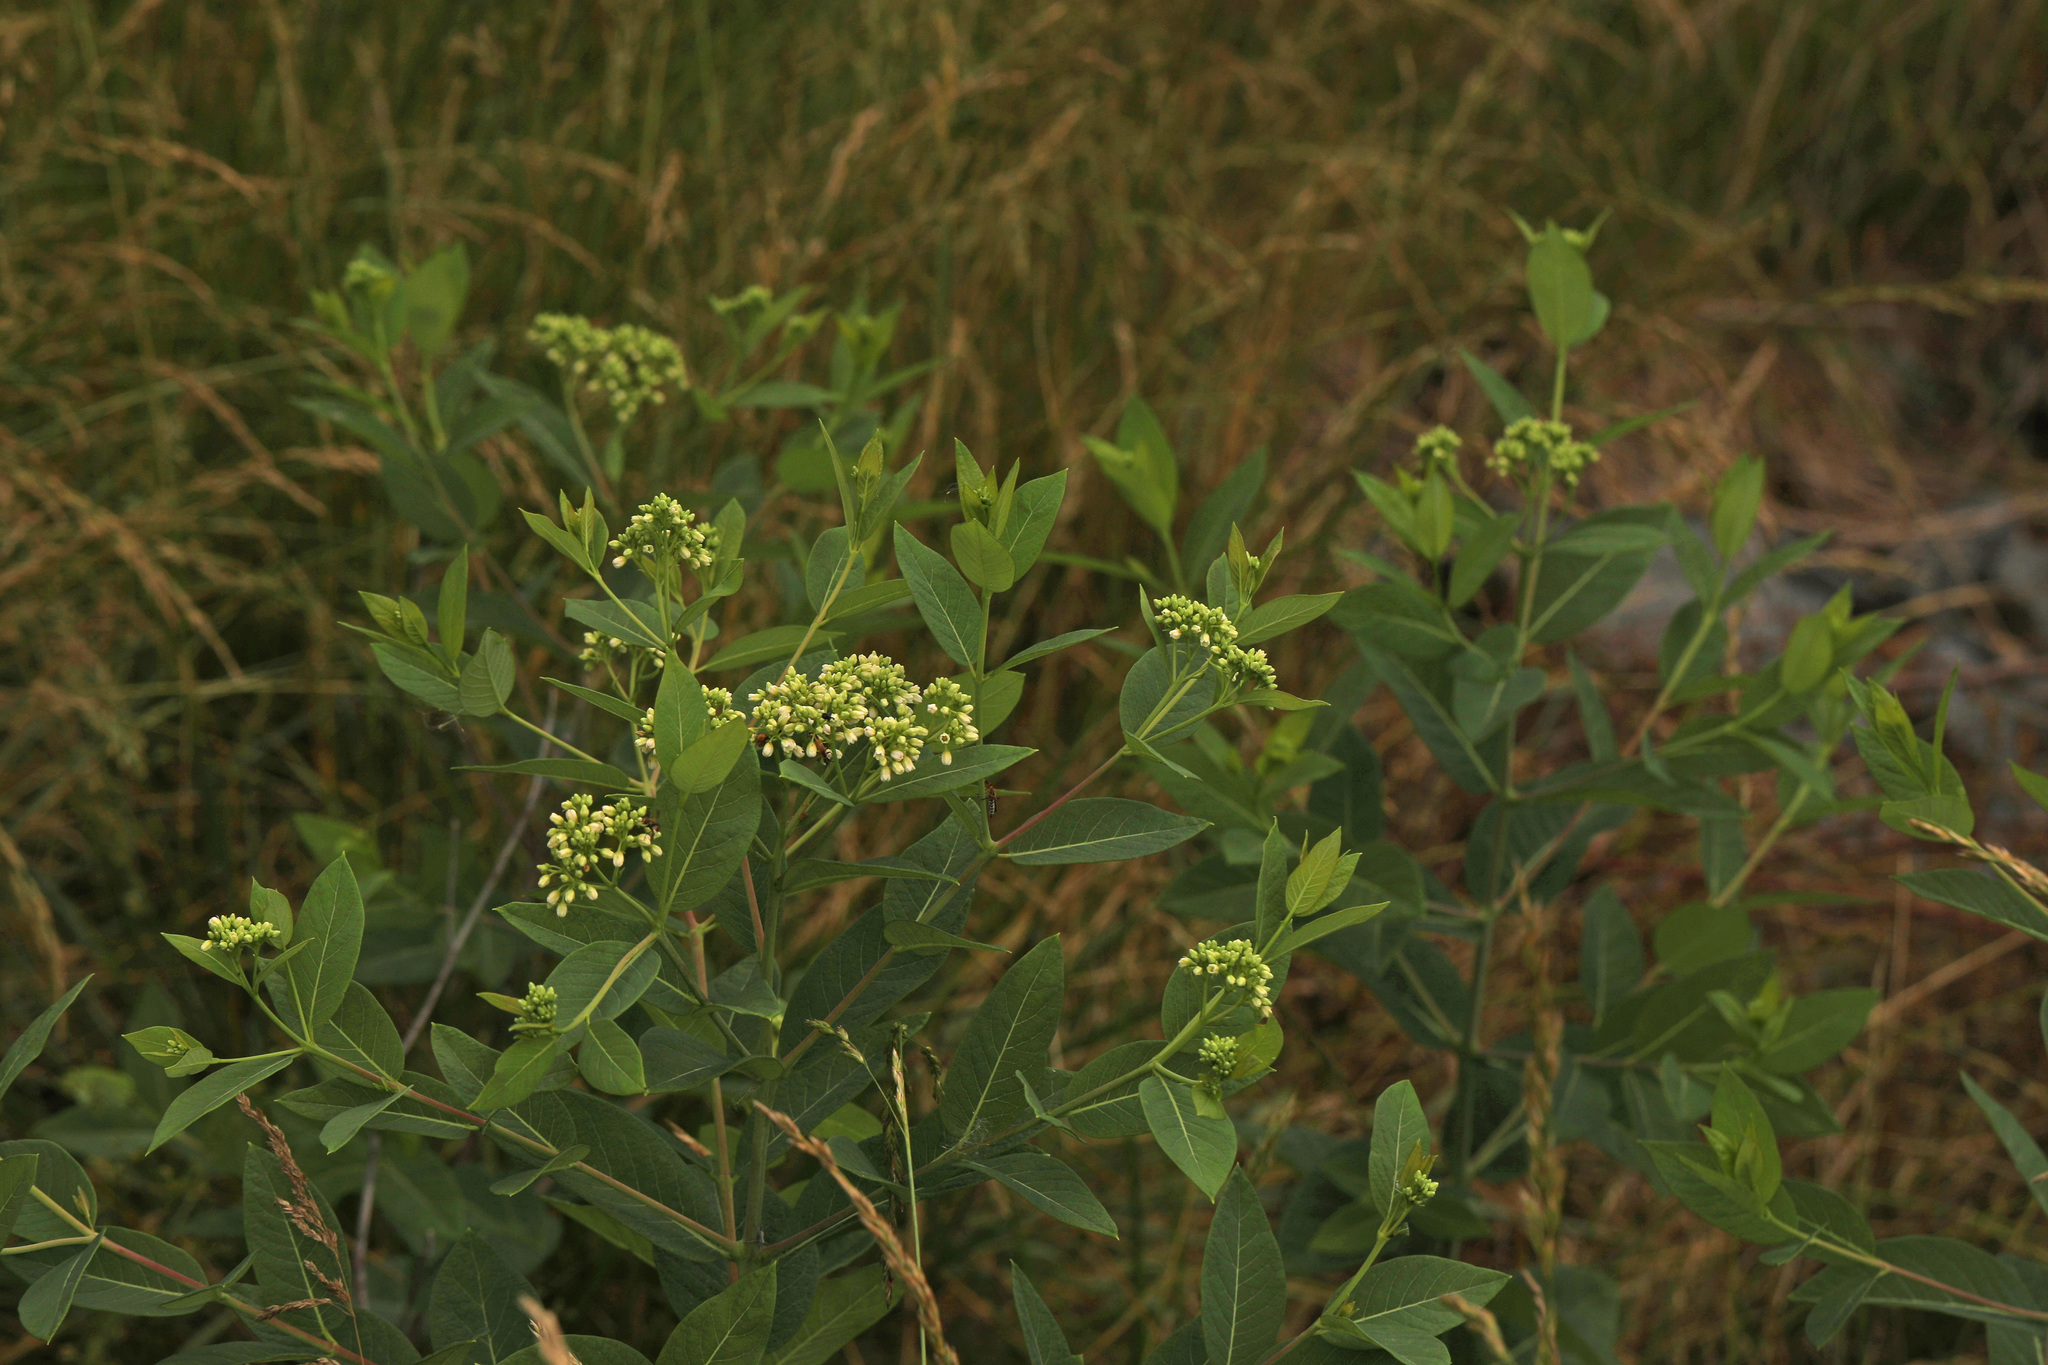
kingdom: Plantae
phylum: Tracheophyta
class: Magnoliopsida
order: Gentianales
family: Apocynaceae
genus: Apocynum
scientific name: Apocynum cannabinum
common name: Hemp dogbane
